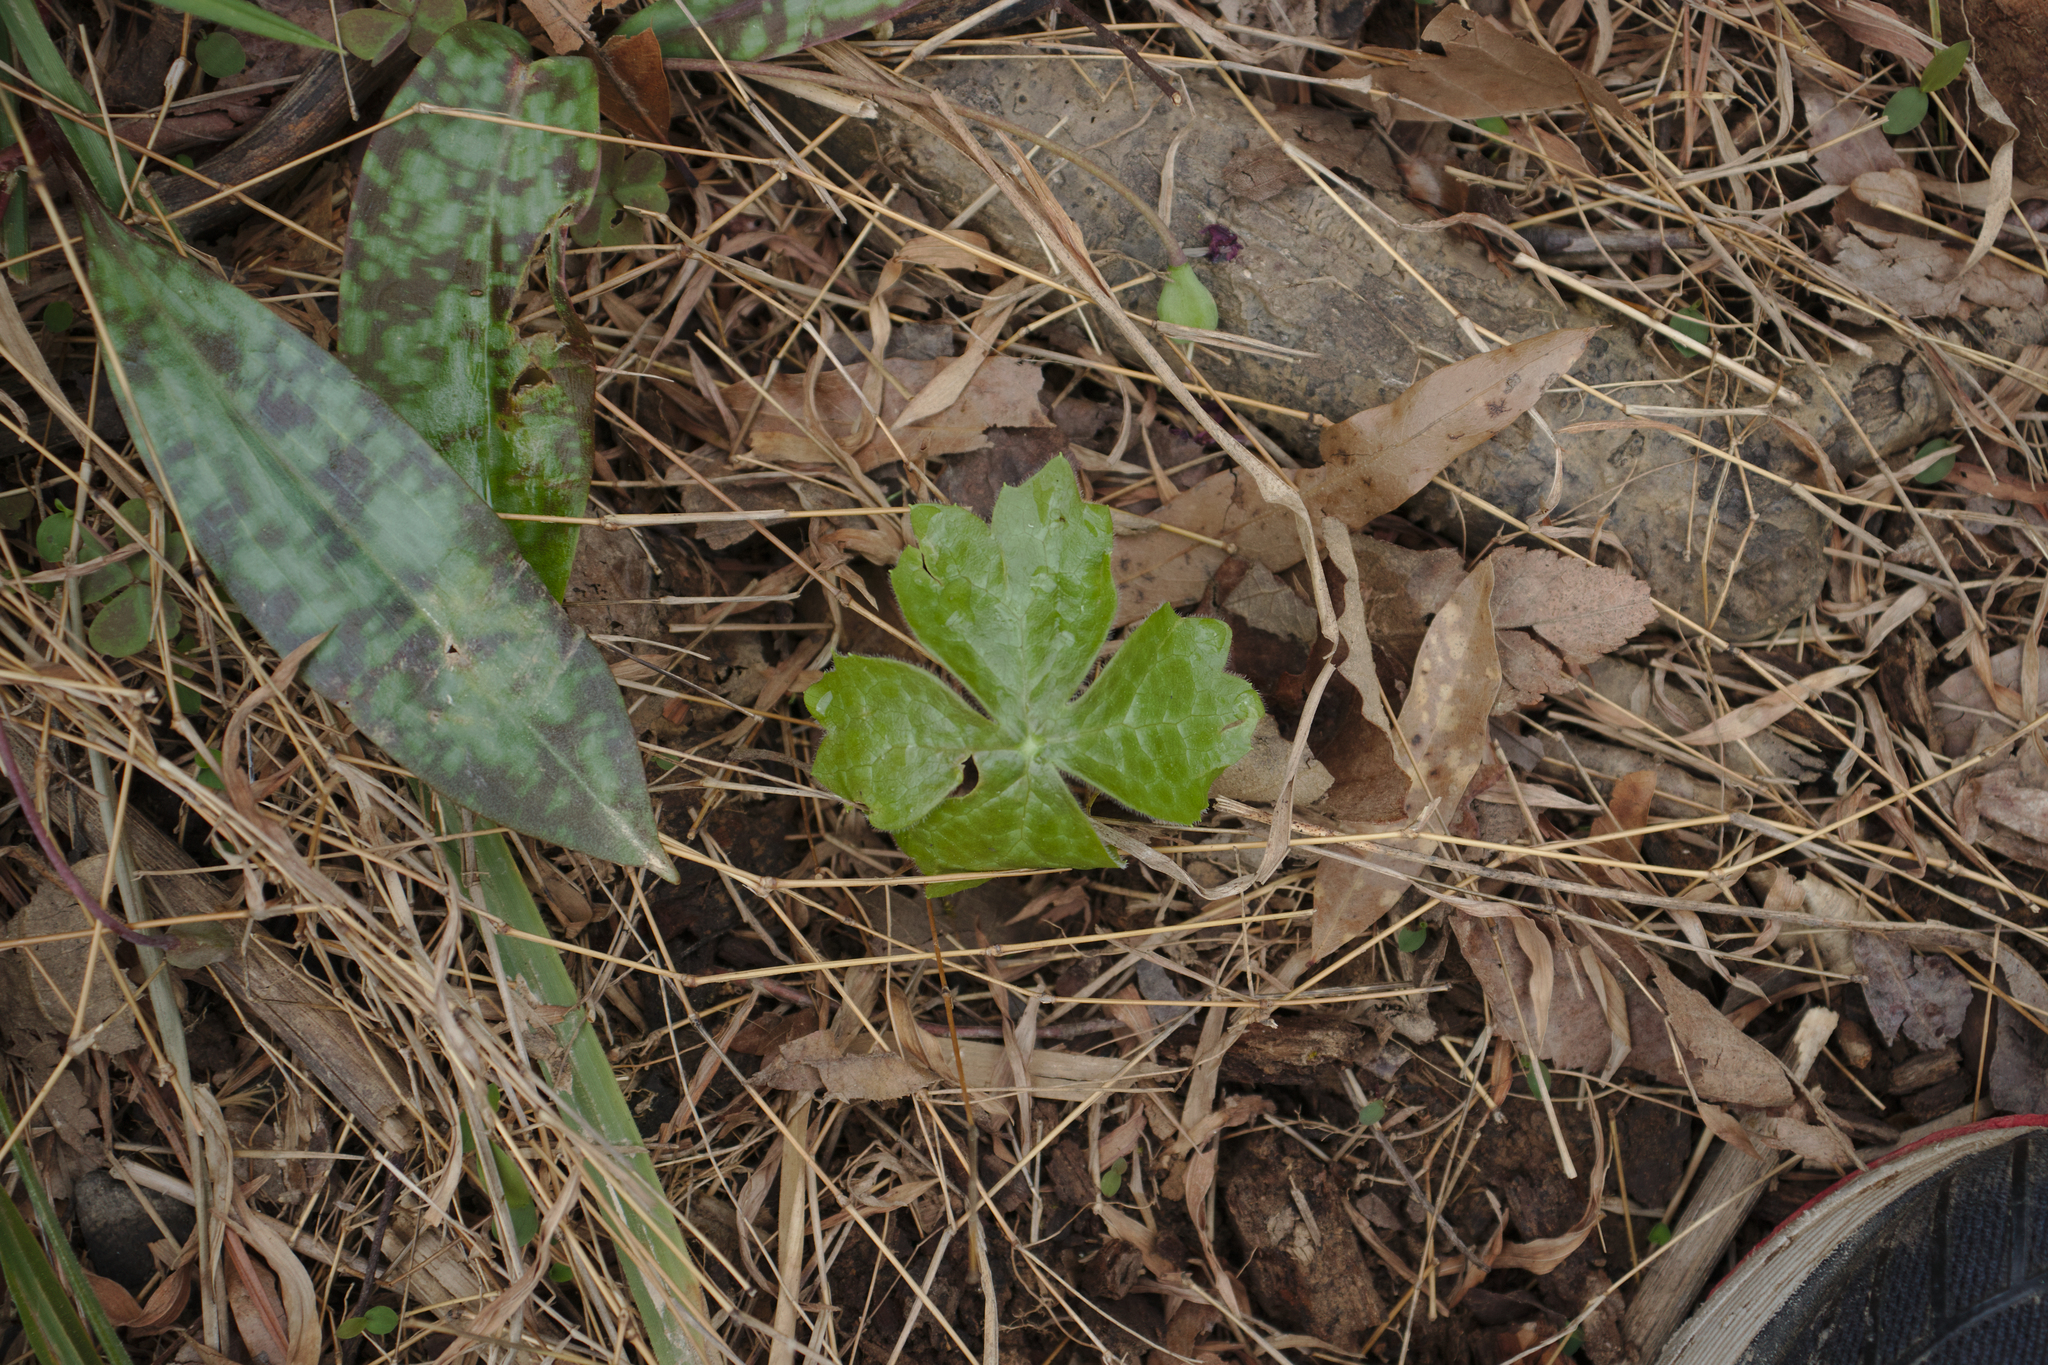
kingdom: Plantae
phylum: Tracheophyta
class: Magnoliopsida
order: Ranunculales
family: Berberidaceae
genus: Podophyllum
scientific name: Podophyllum peltatum
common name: Wild mandrake
